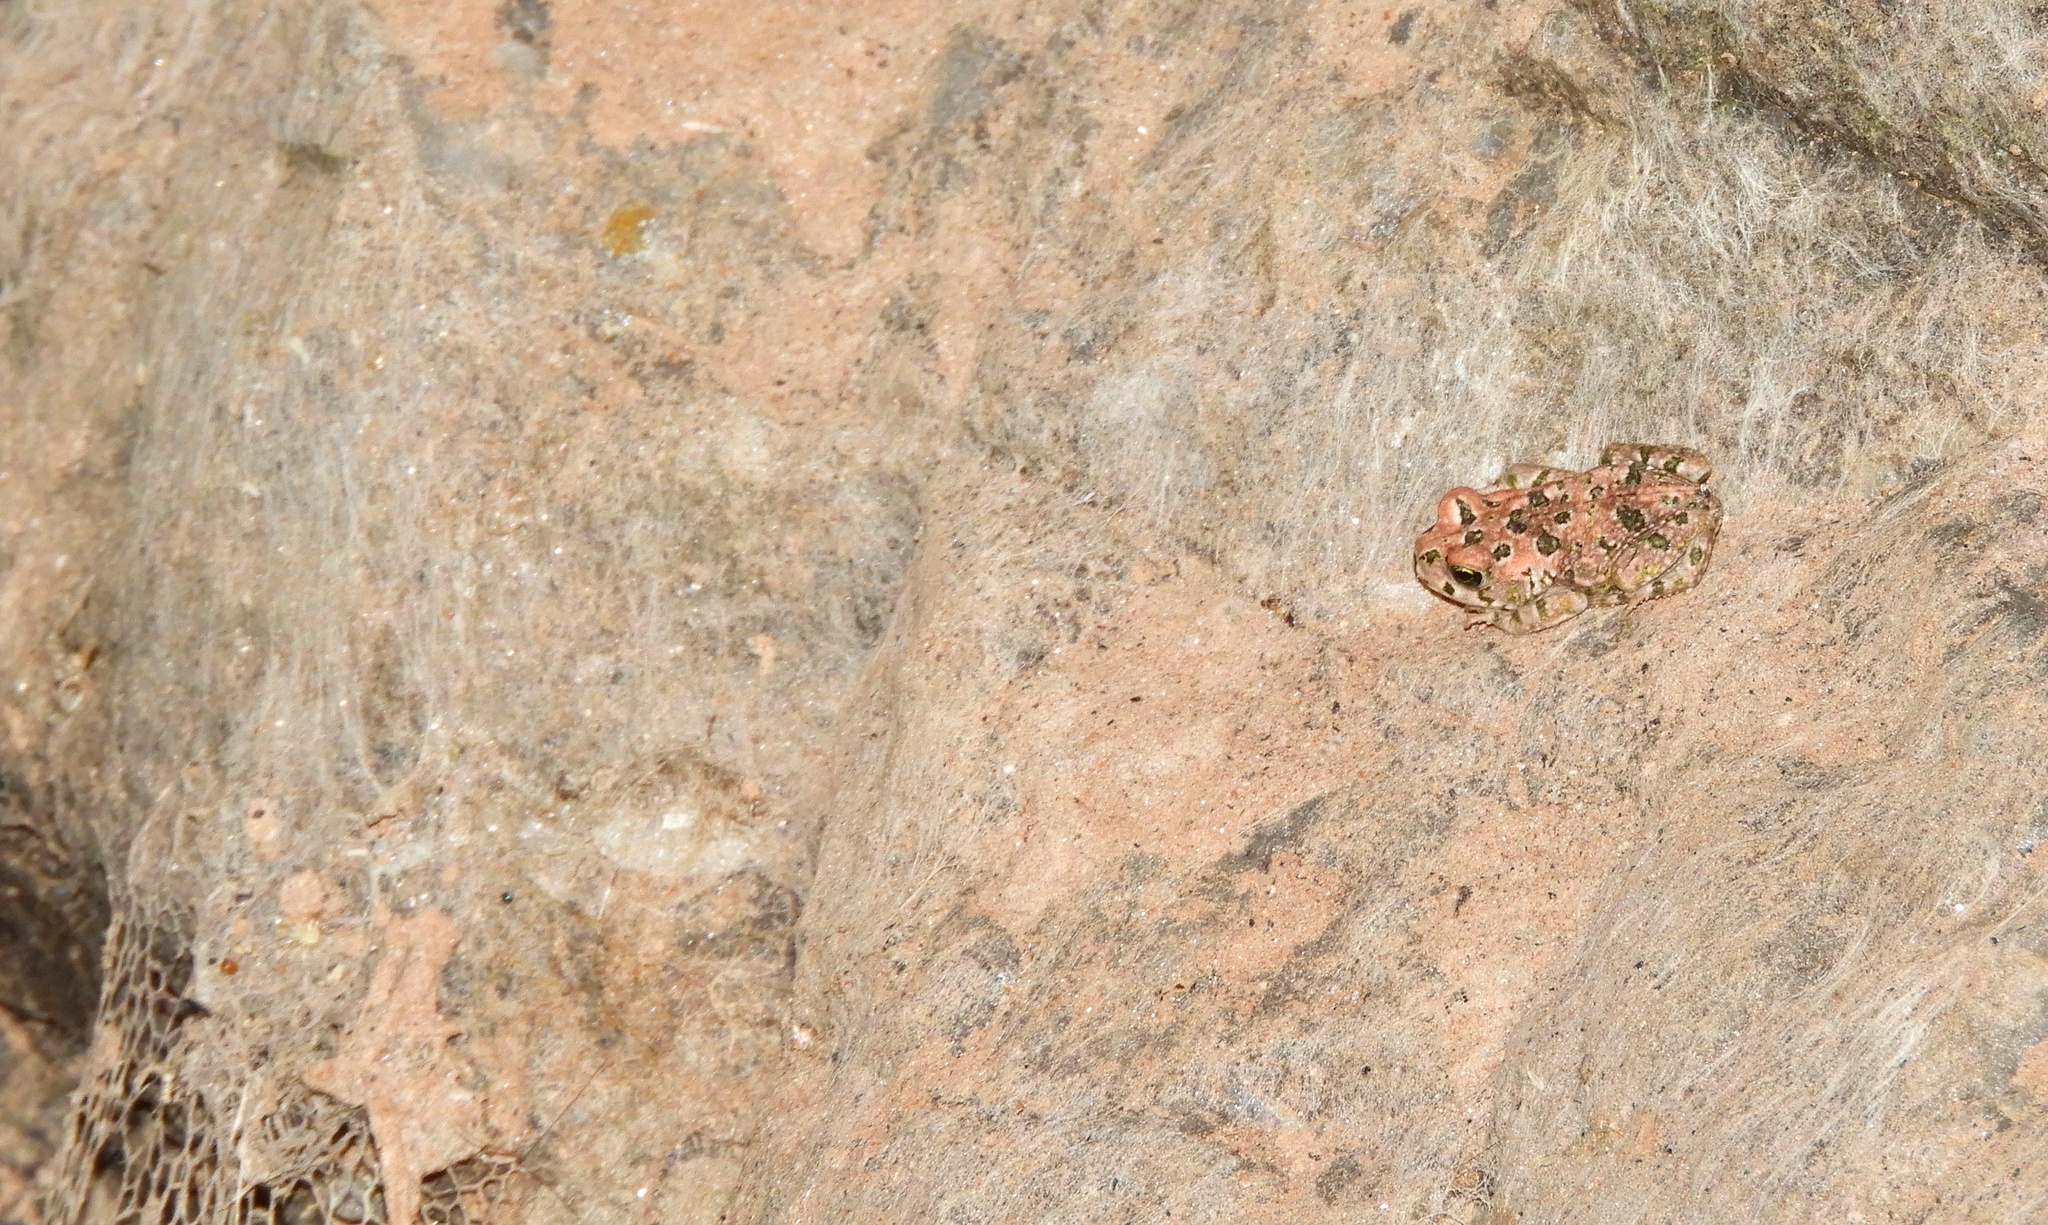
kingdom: Animalia
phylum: Chordata
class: Amphibia
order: Anura
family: Bufonidae
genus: Vandijkophrynus
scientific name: Vandijkophrynus robinsoni
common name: Paradise toad
